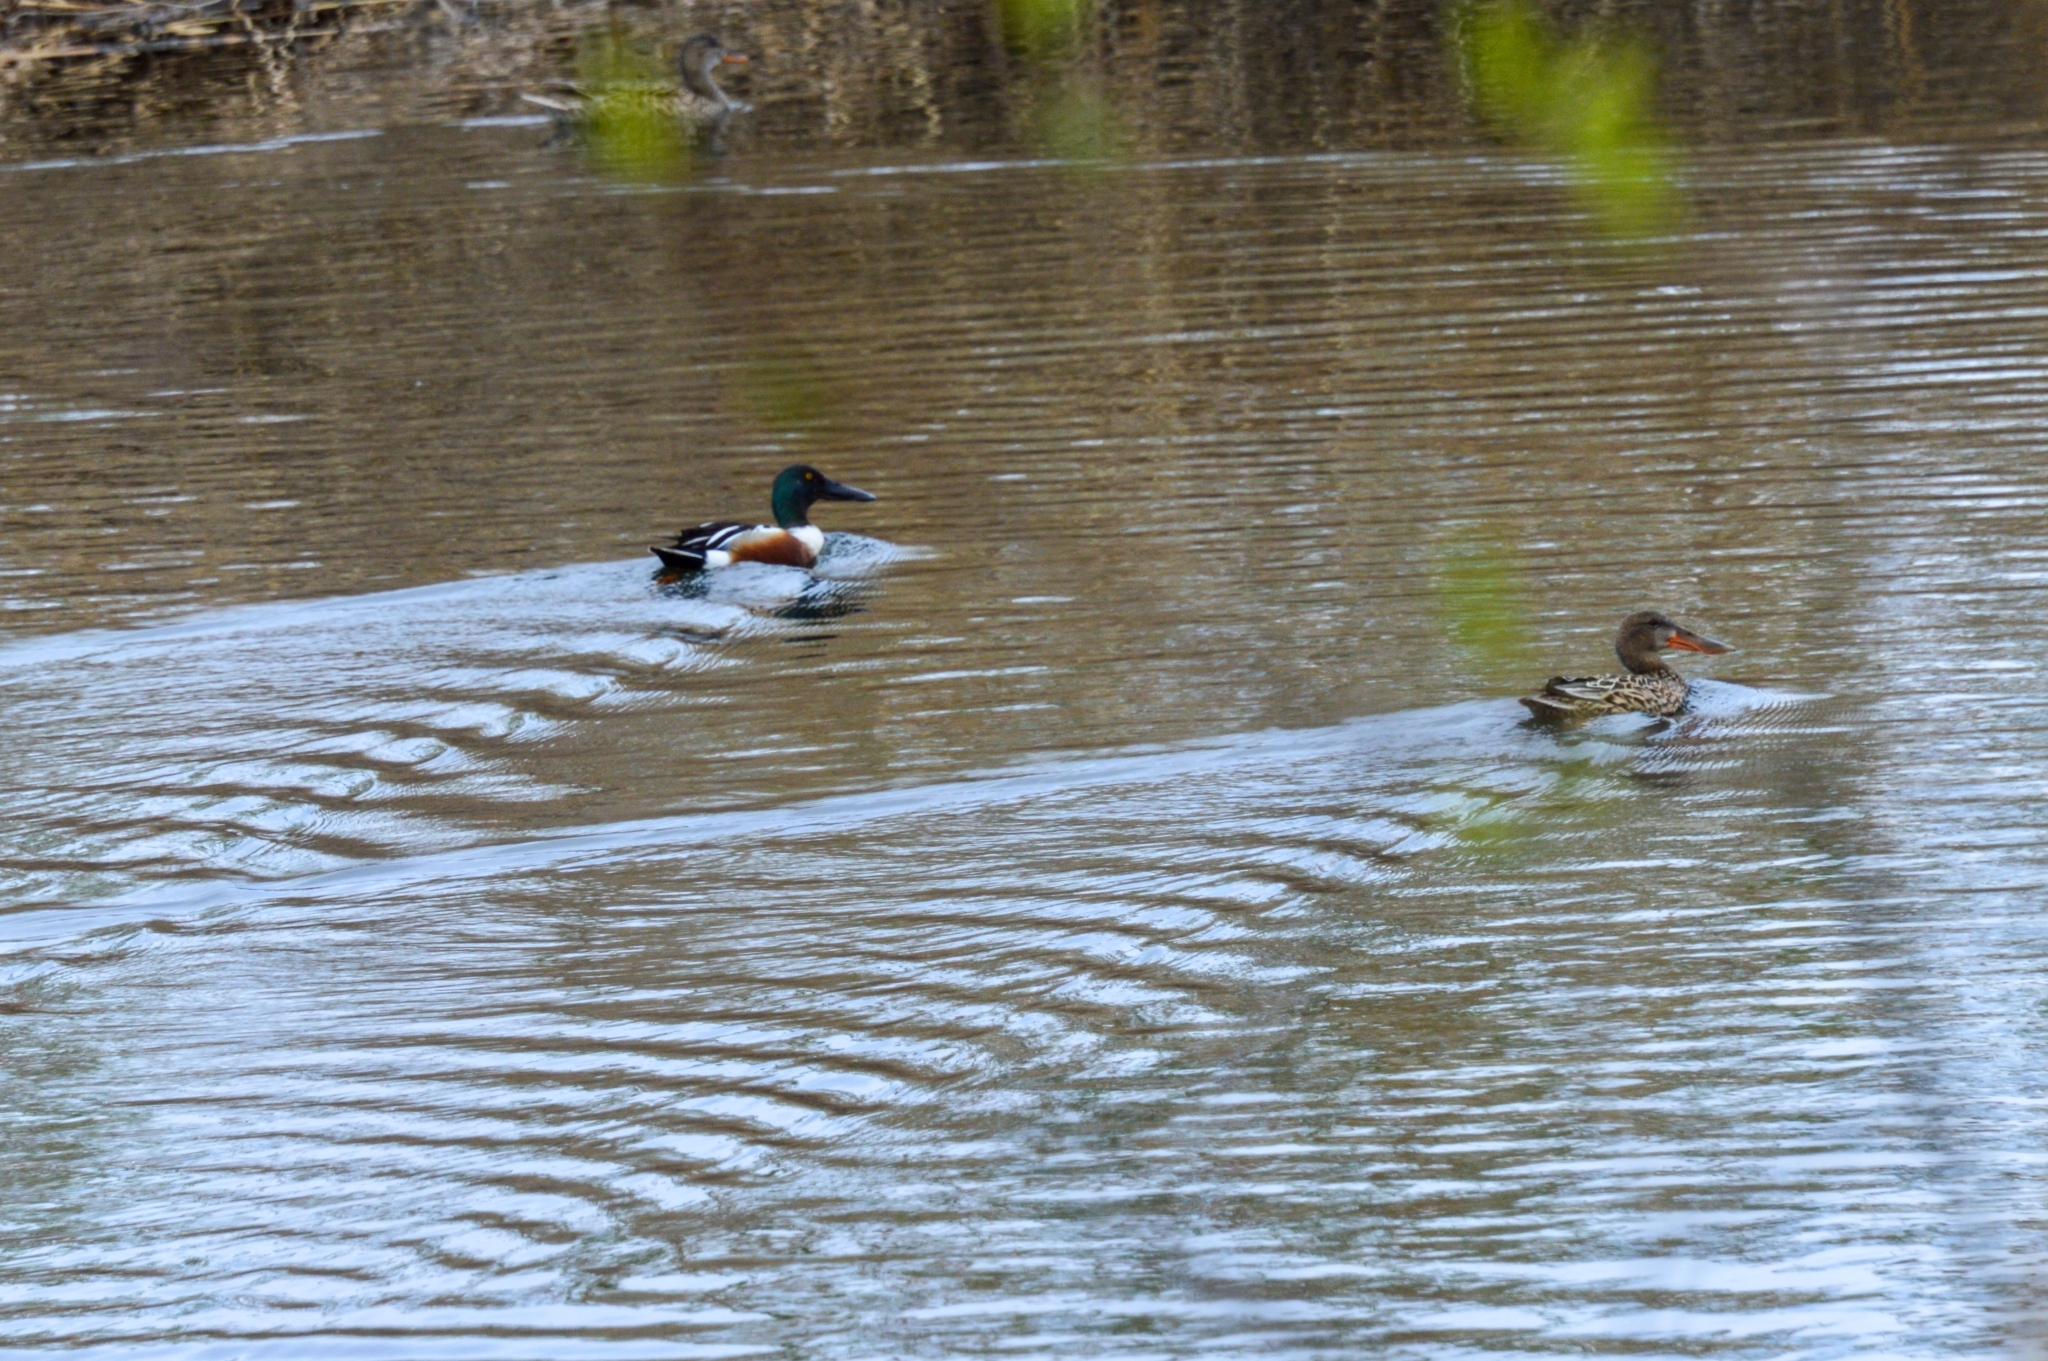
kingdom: Animalia
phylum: Chordata
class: Aves
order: Anseriformes
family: Anatidae
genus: Spatula
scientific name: Spatula clypeata
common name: Northern shoveler
